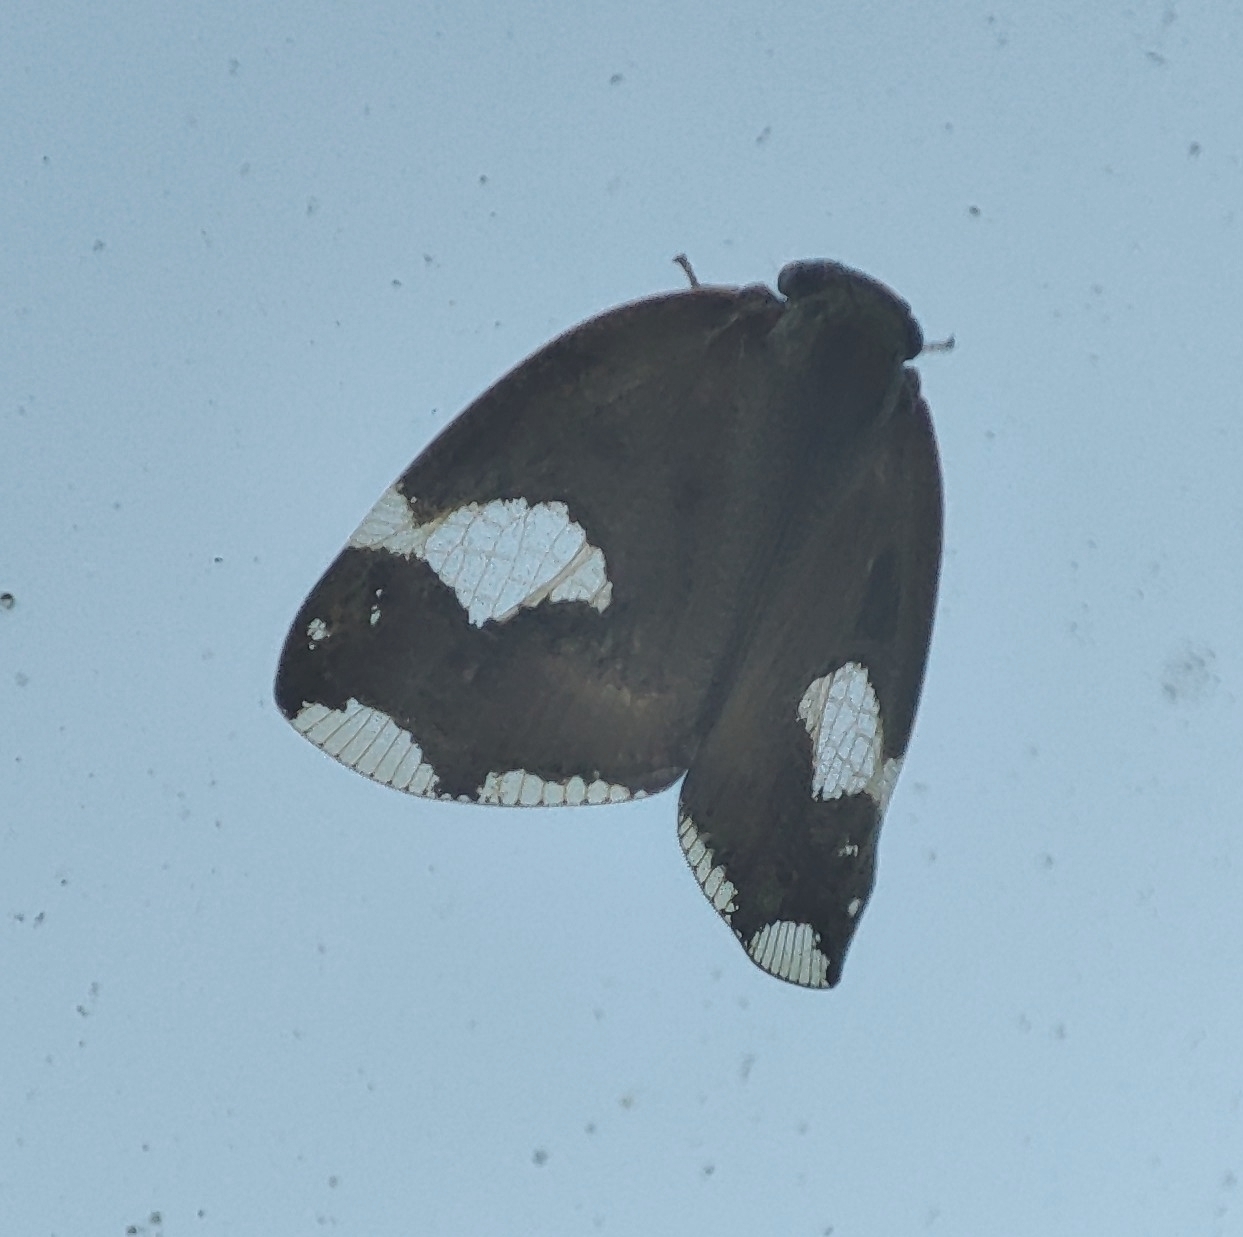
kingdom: Animalia
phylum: Arthropoda
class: Insecta
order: Hemiptera
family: Ricaniidae
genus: Ricania
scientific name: Ricania fenestrata
